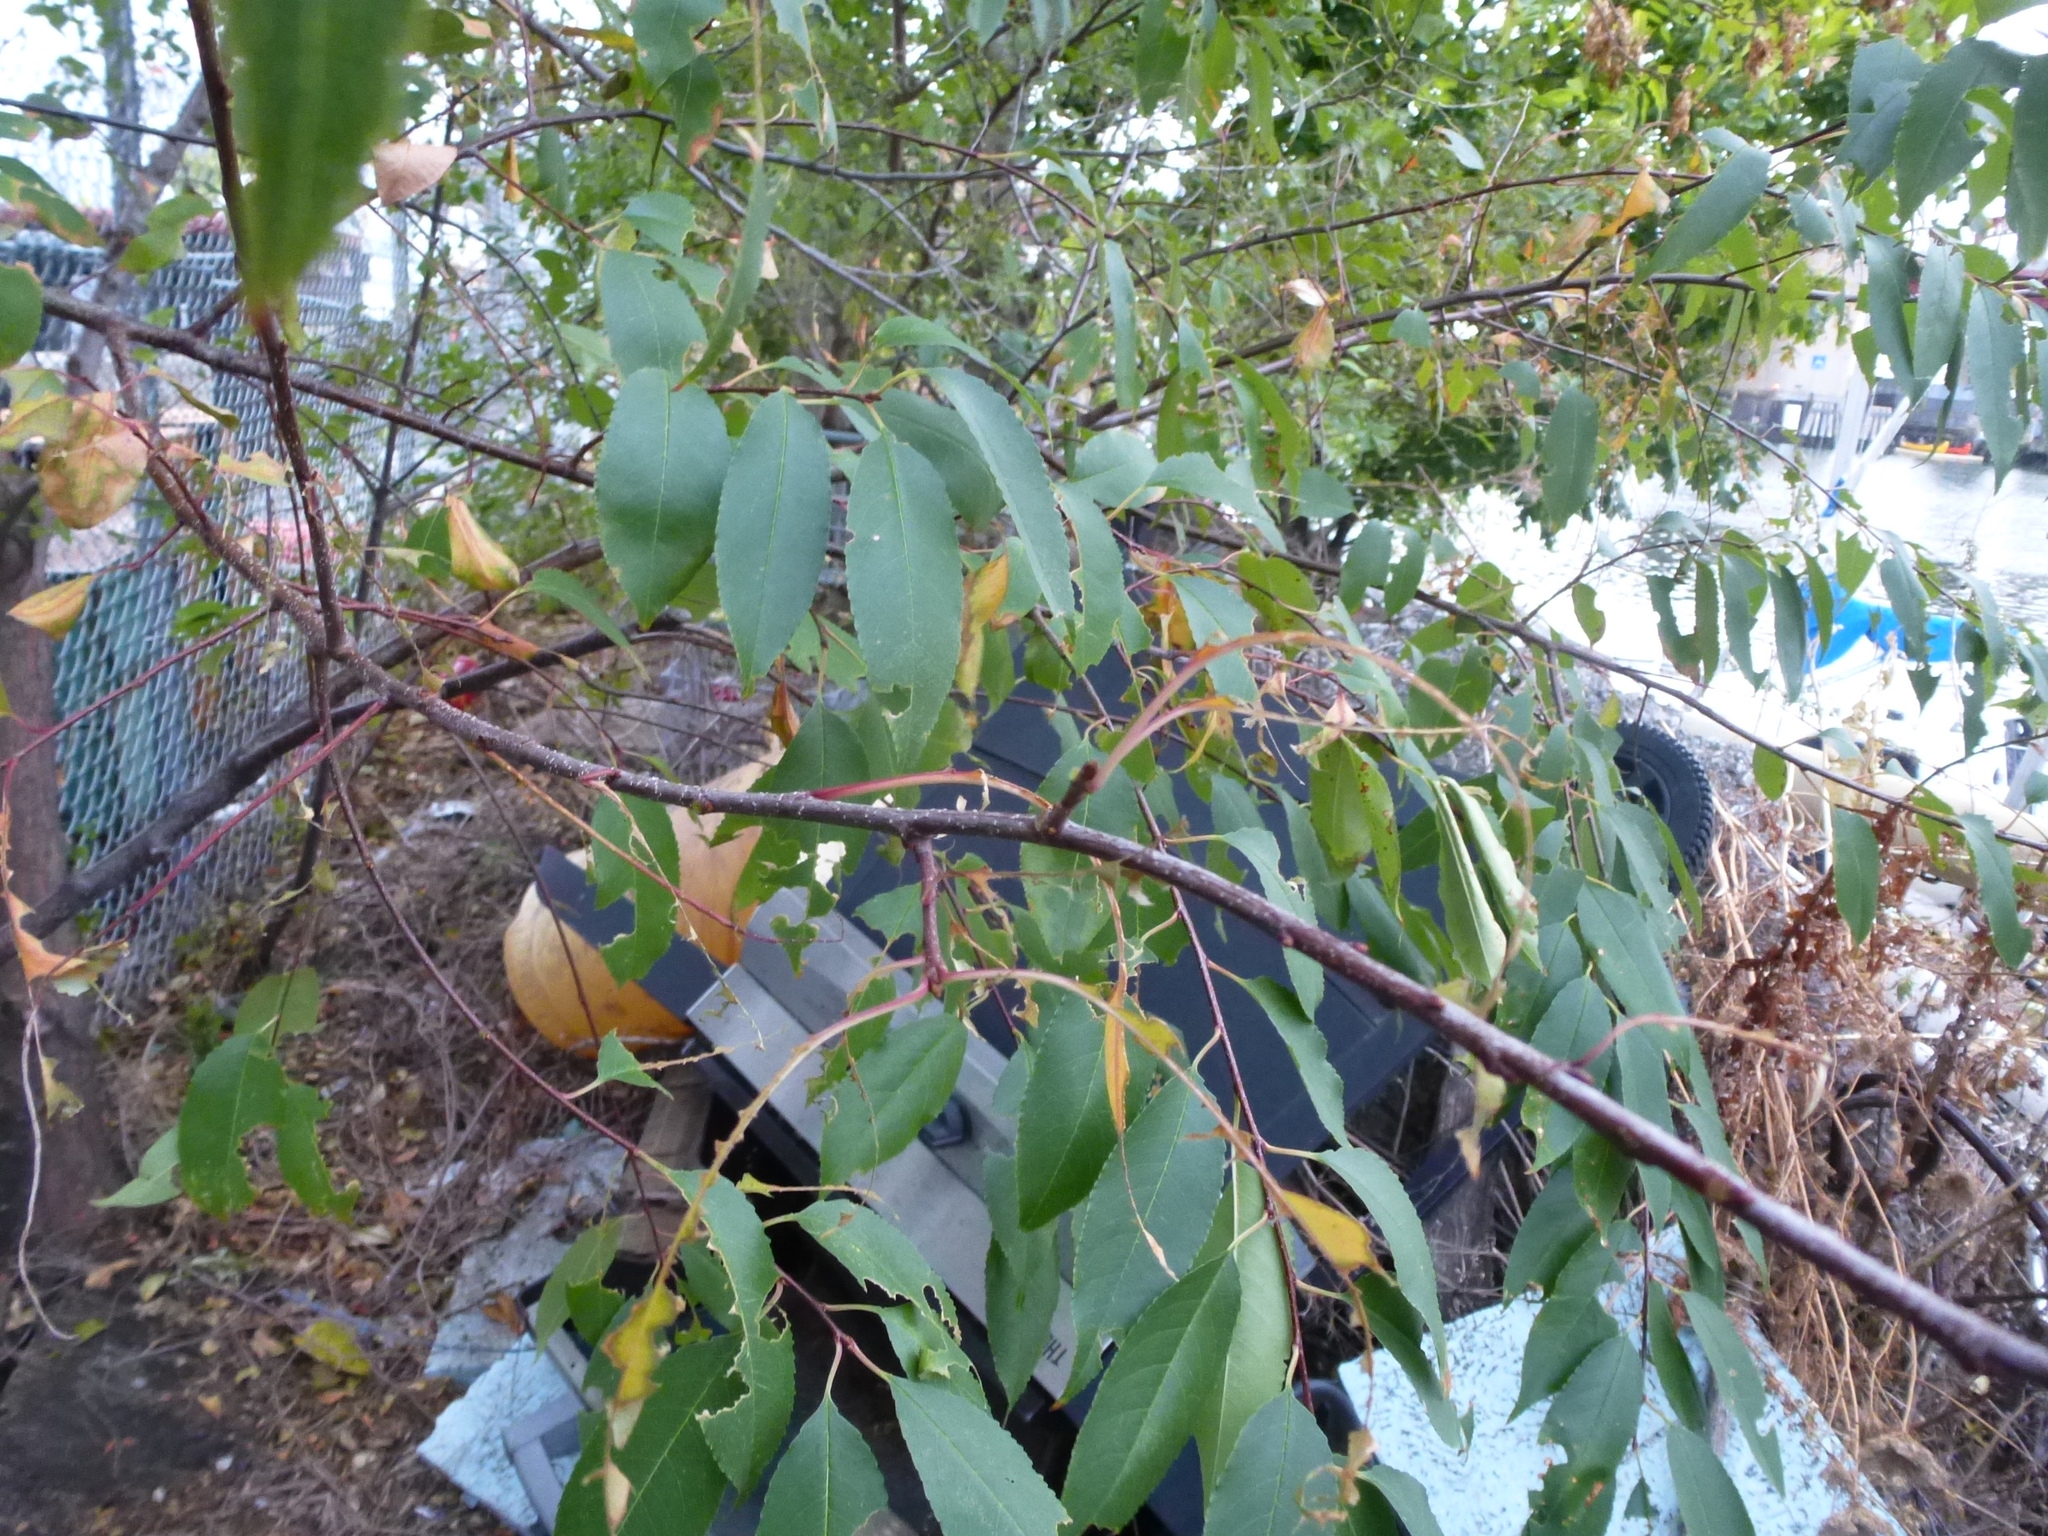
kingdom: Plantae
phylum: Tracheophyta
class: Magnoliopsida
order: Rosales
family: Rosaceae
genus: Prunus
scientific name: Prunus serotina
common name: Black cherry
